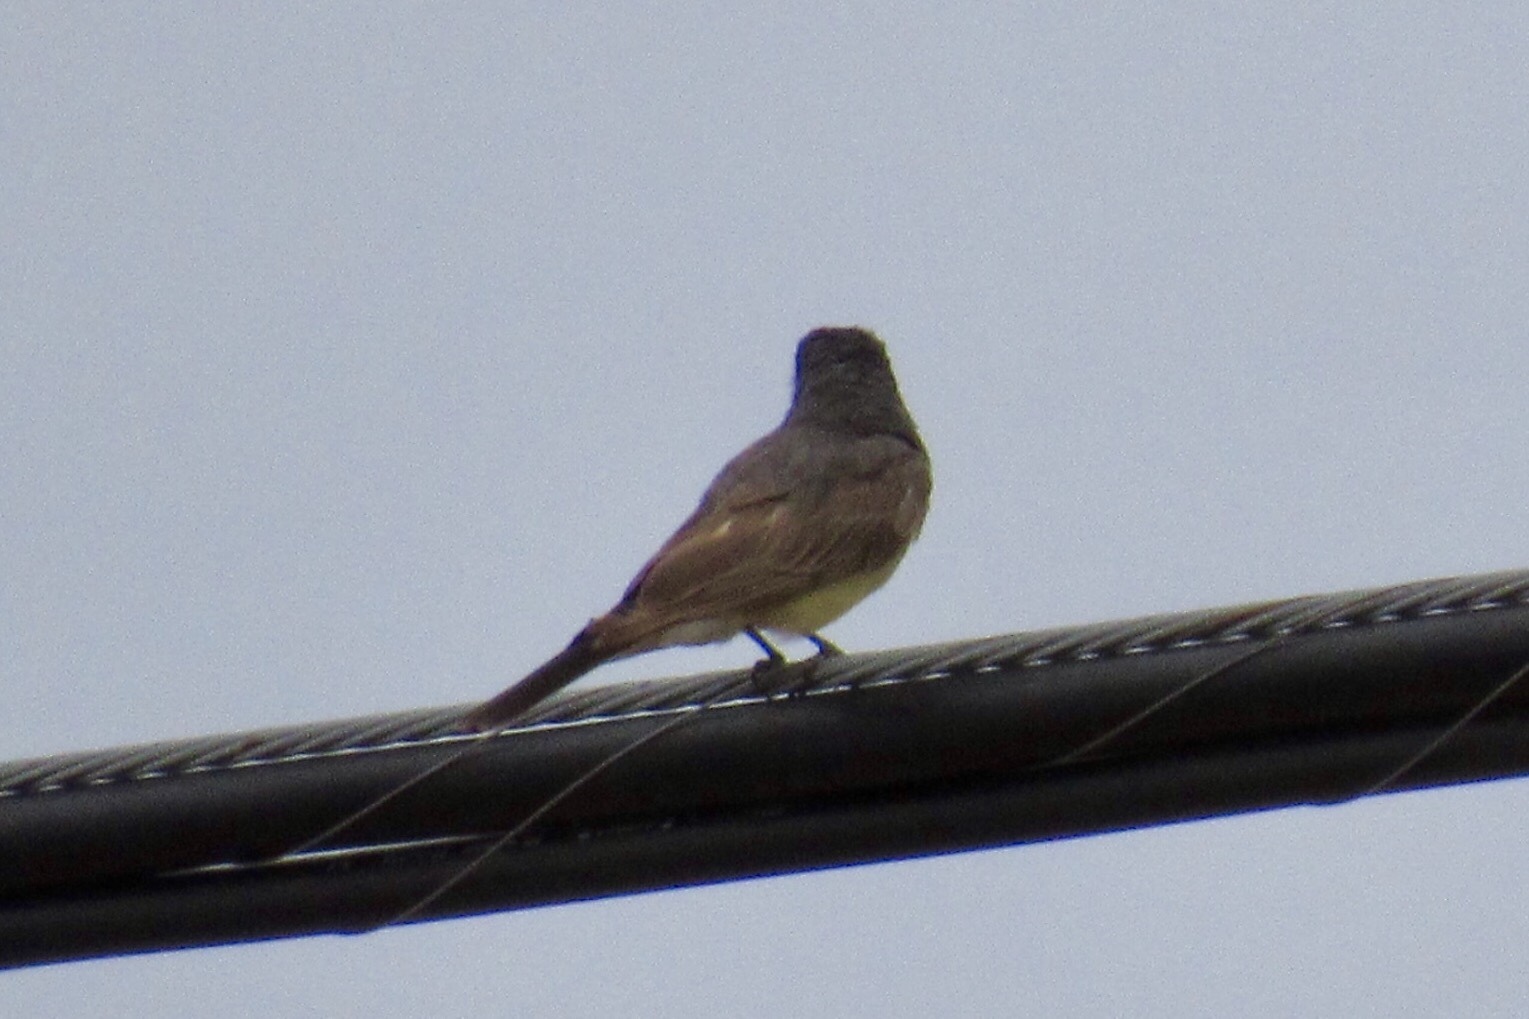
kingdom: Animalia
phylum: Chordata
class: Aves
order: Passeriformes
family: Tyrannidae
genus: Tyrannus
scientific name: Tyrannus vociferans
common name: Cassin's kingbird
